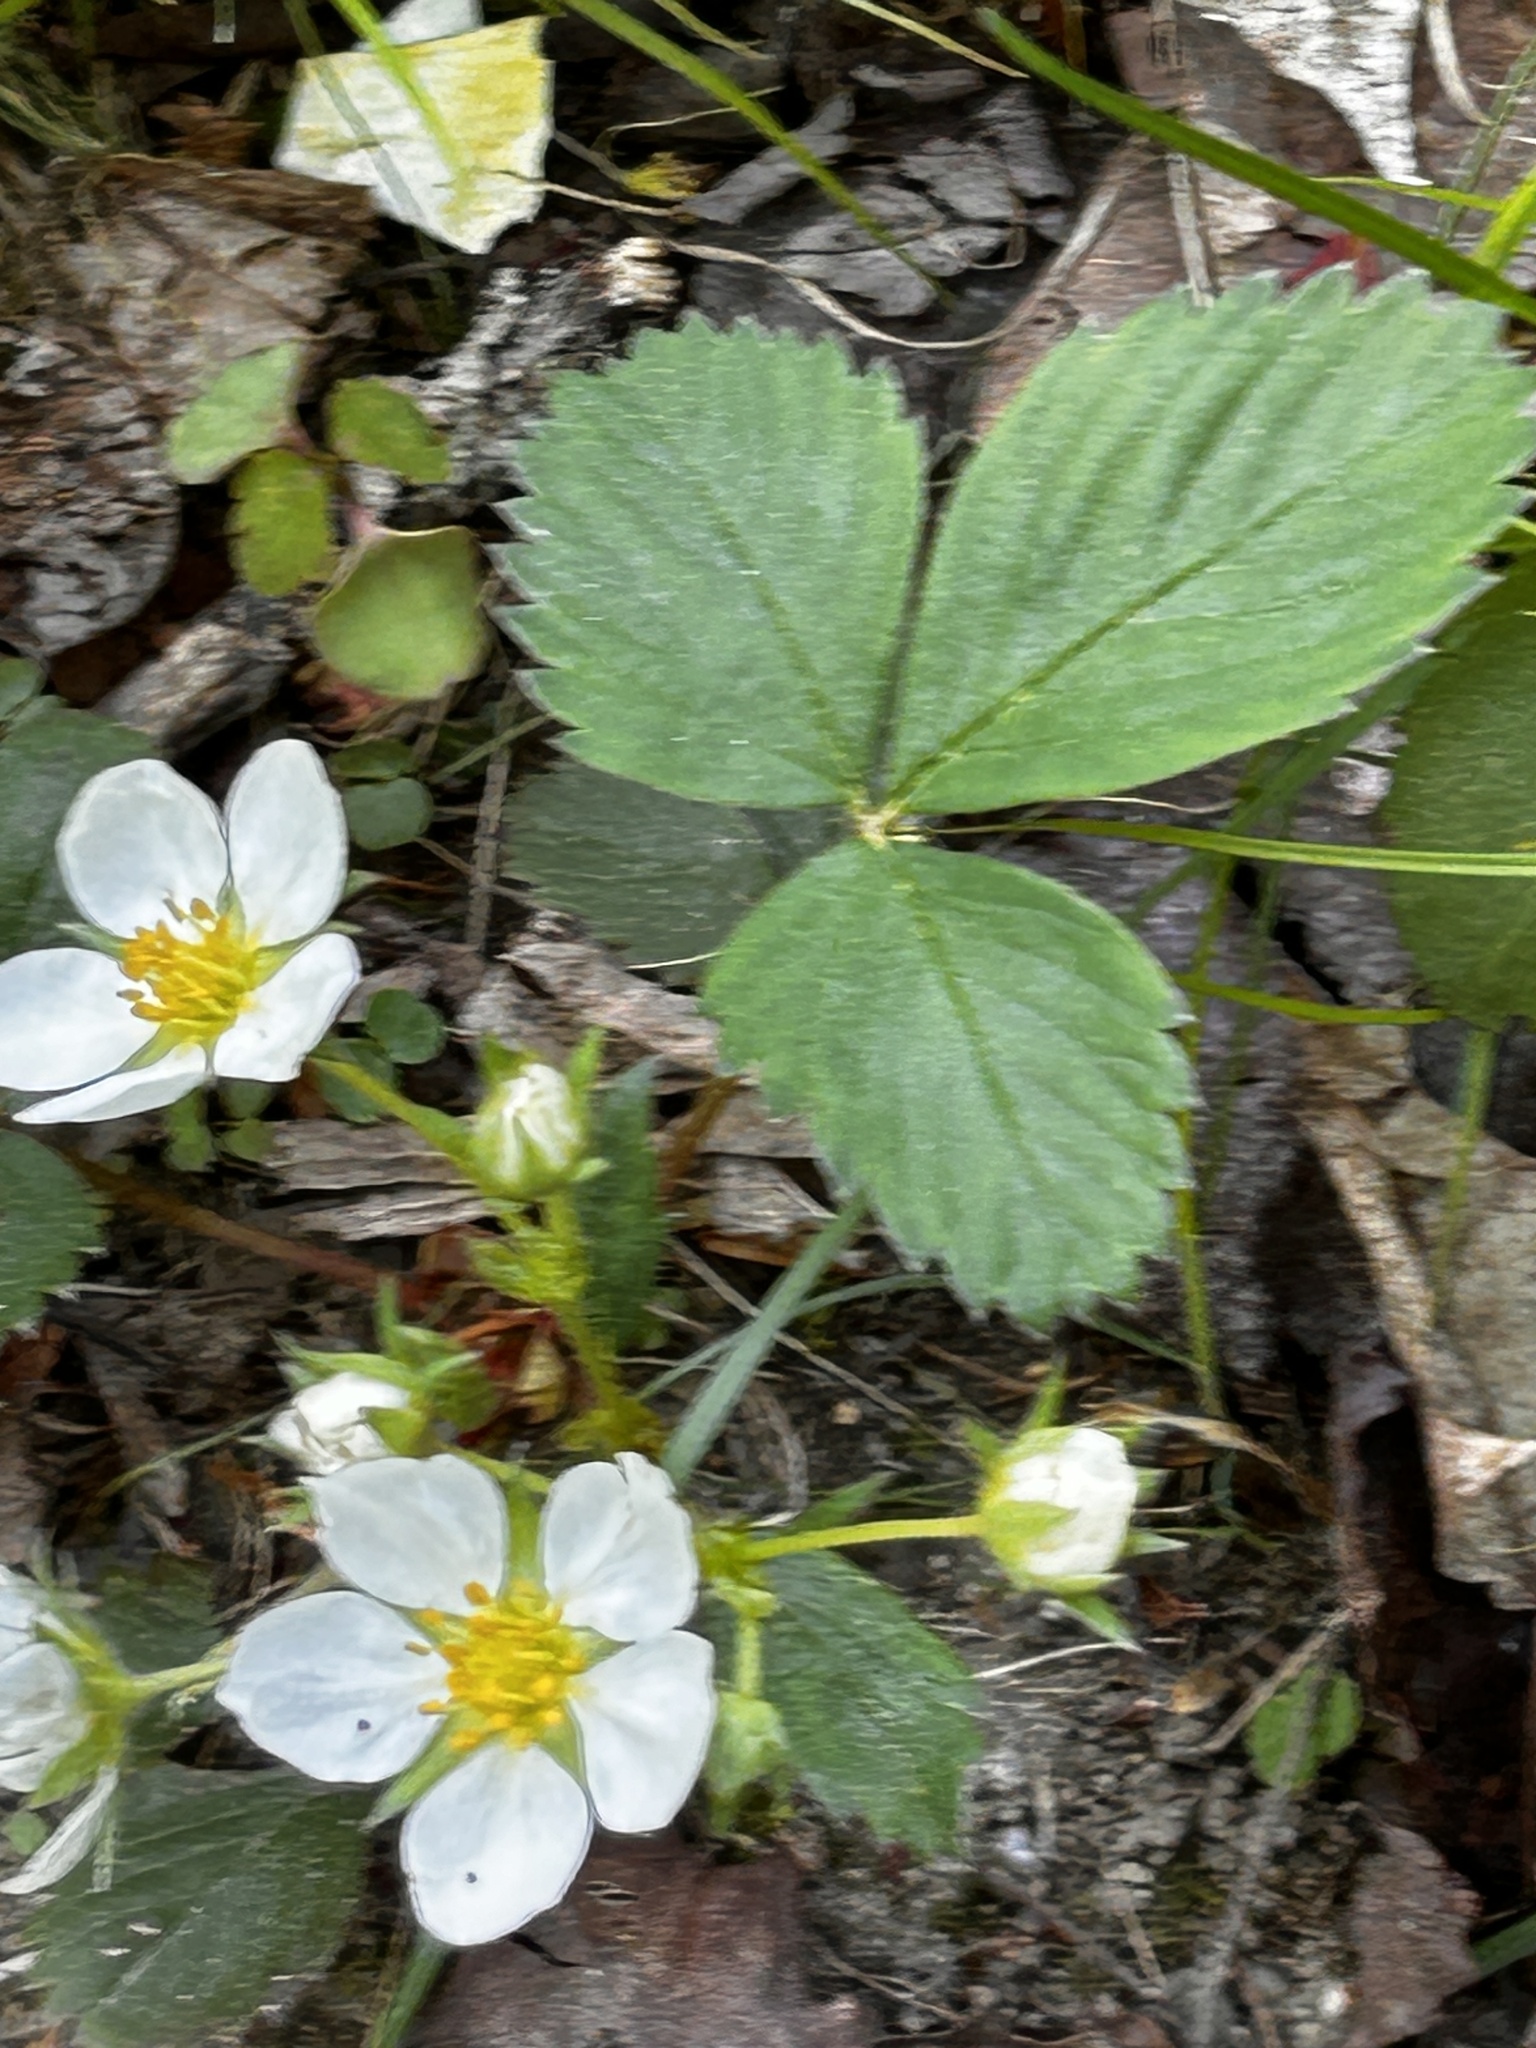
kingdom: Plantae
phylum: Tracheophyta
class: Magnoliopsida
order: Rosales
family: Rosaceae
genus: Fragaria
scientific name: Fragaria virginiana
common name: Thickleaved wild strawberry
